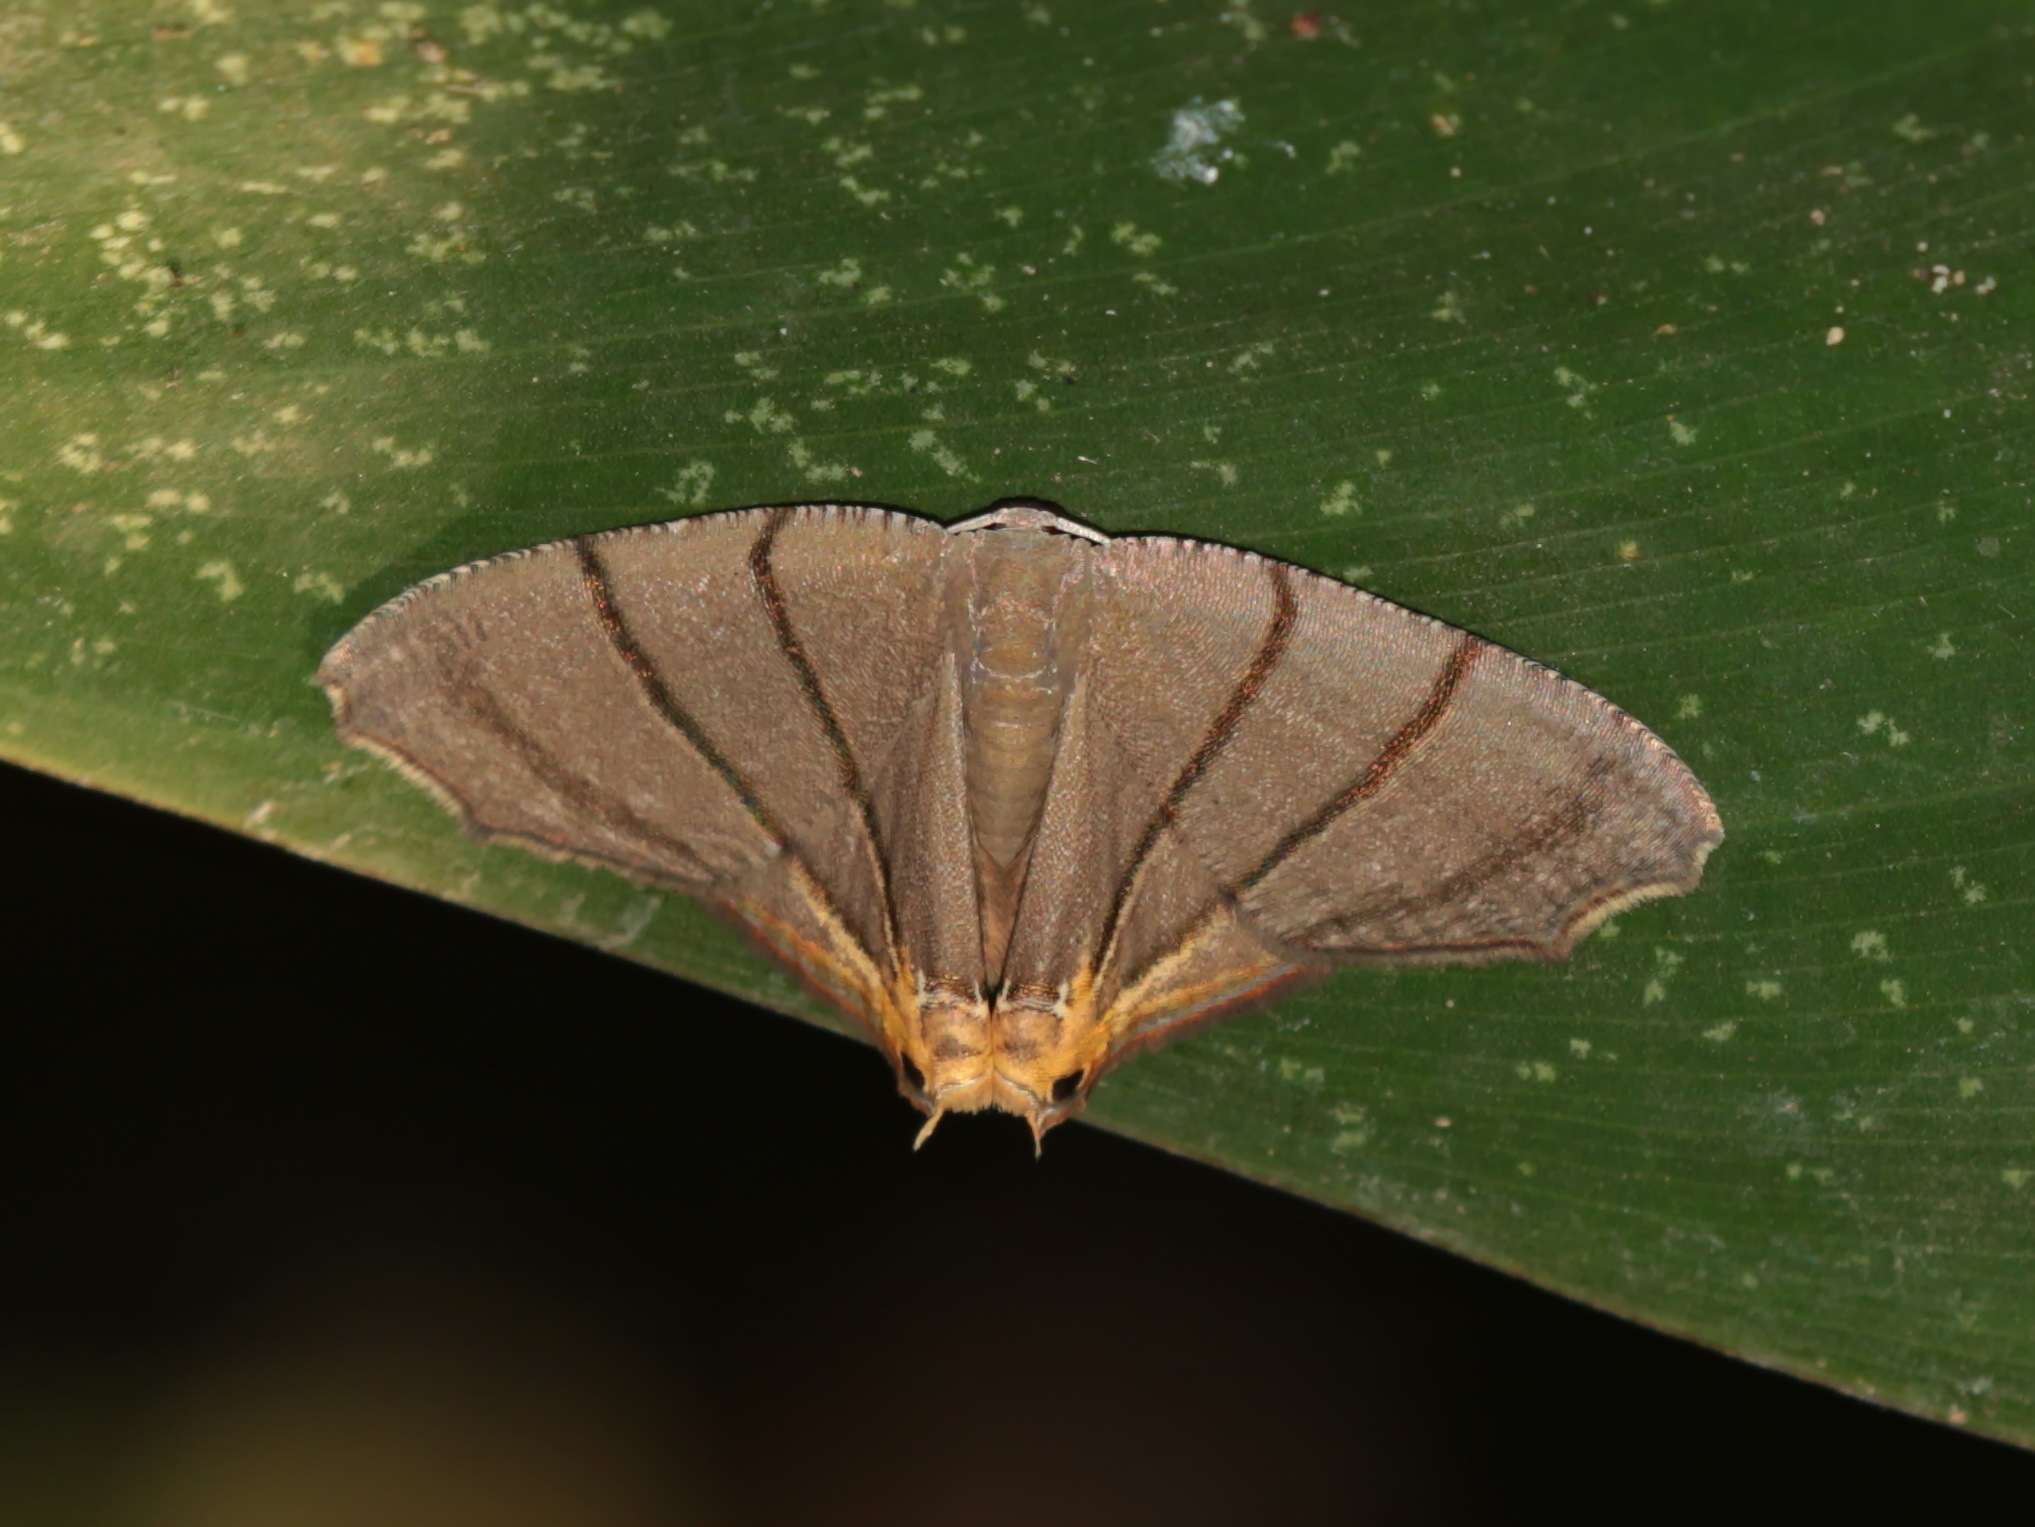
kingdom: Animalia
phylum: Arthropoda
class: Insecta
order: Lepidoptera
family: Uraniidae
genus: Orudiza
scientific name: Orudiza protheclaria
